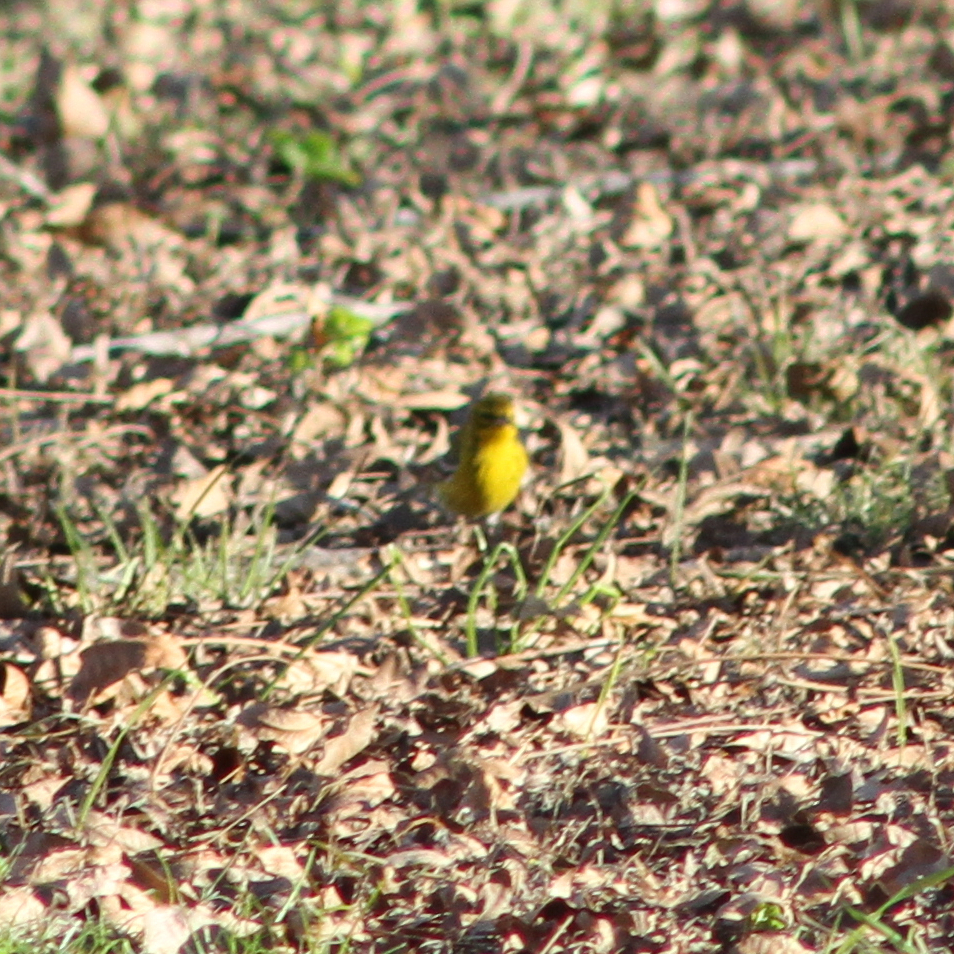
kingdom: Animalia
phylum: Chordata
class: Aves
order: Passeriformes
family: Parulidae
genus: Setophaga
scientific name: Setophaga pinus
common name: Pine warbler
